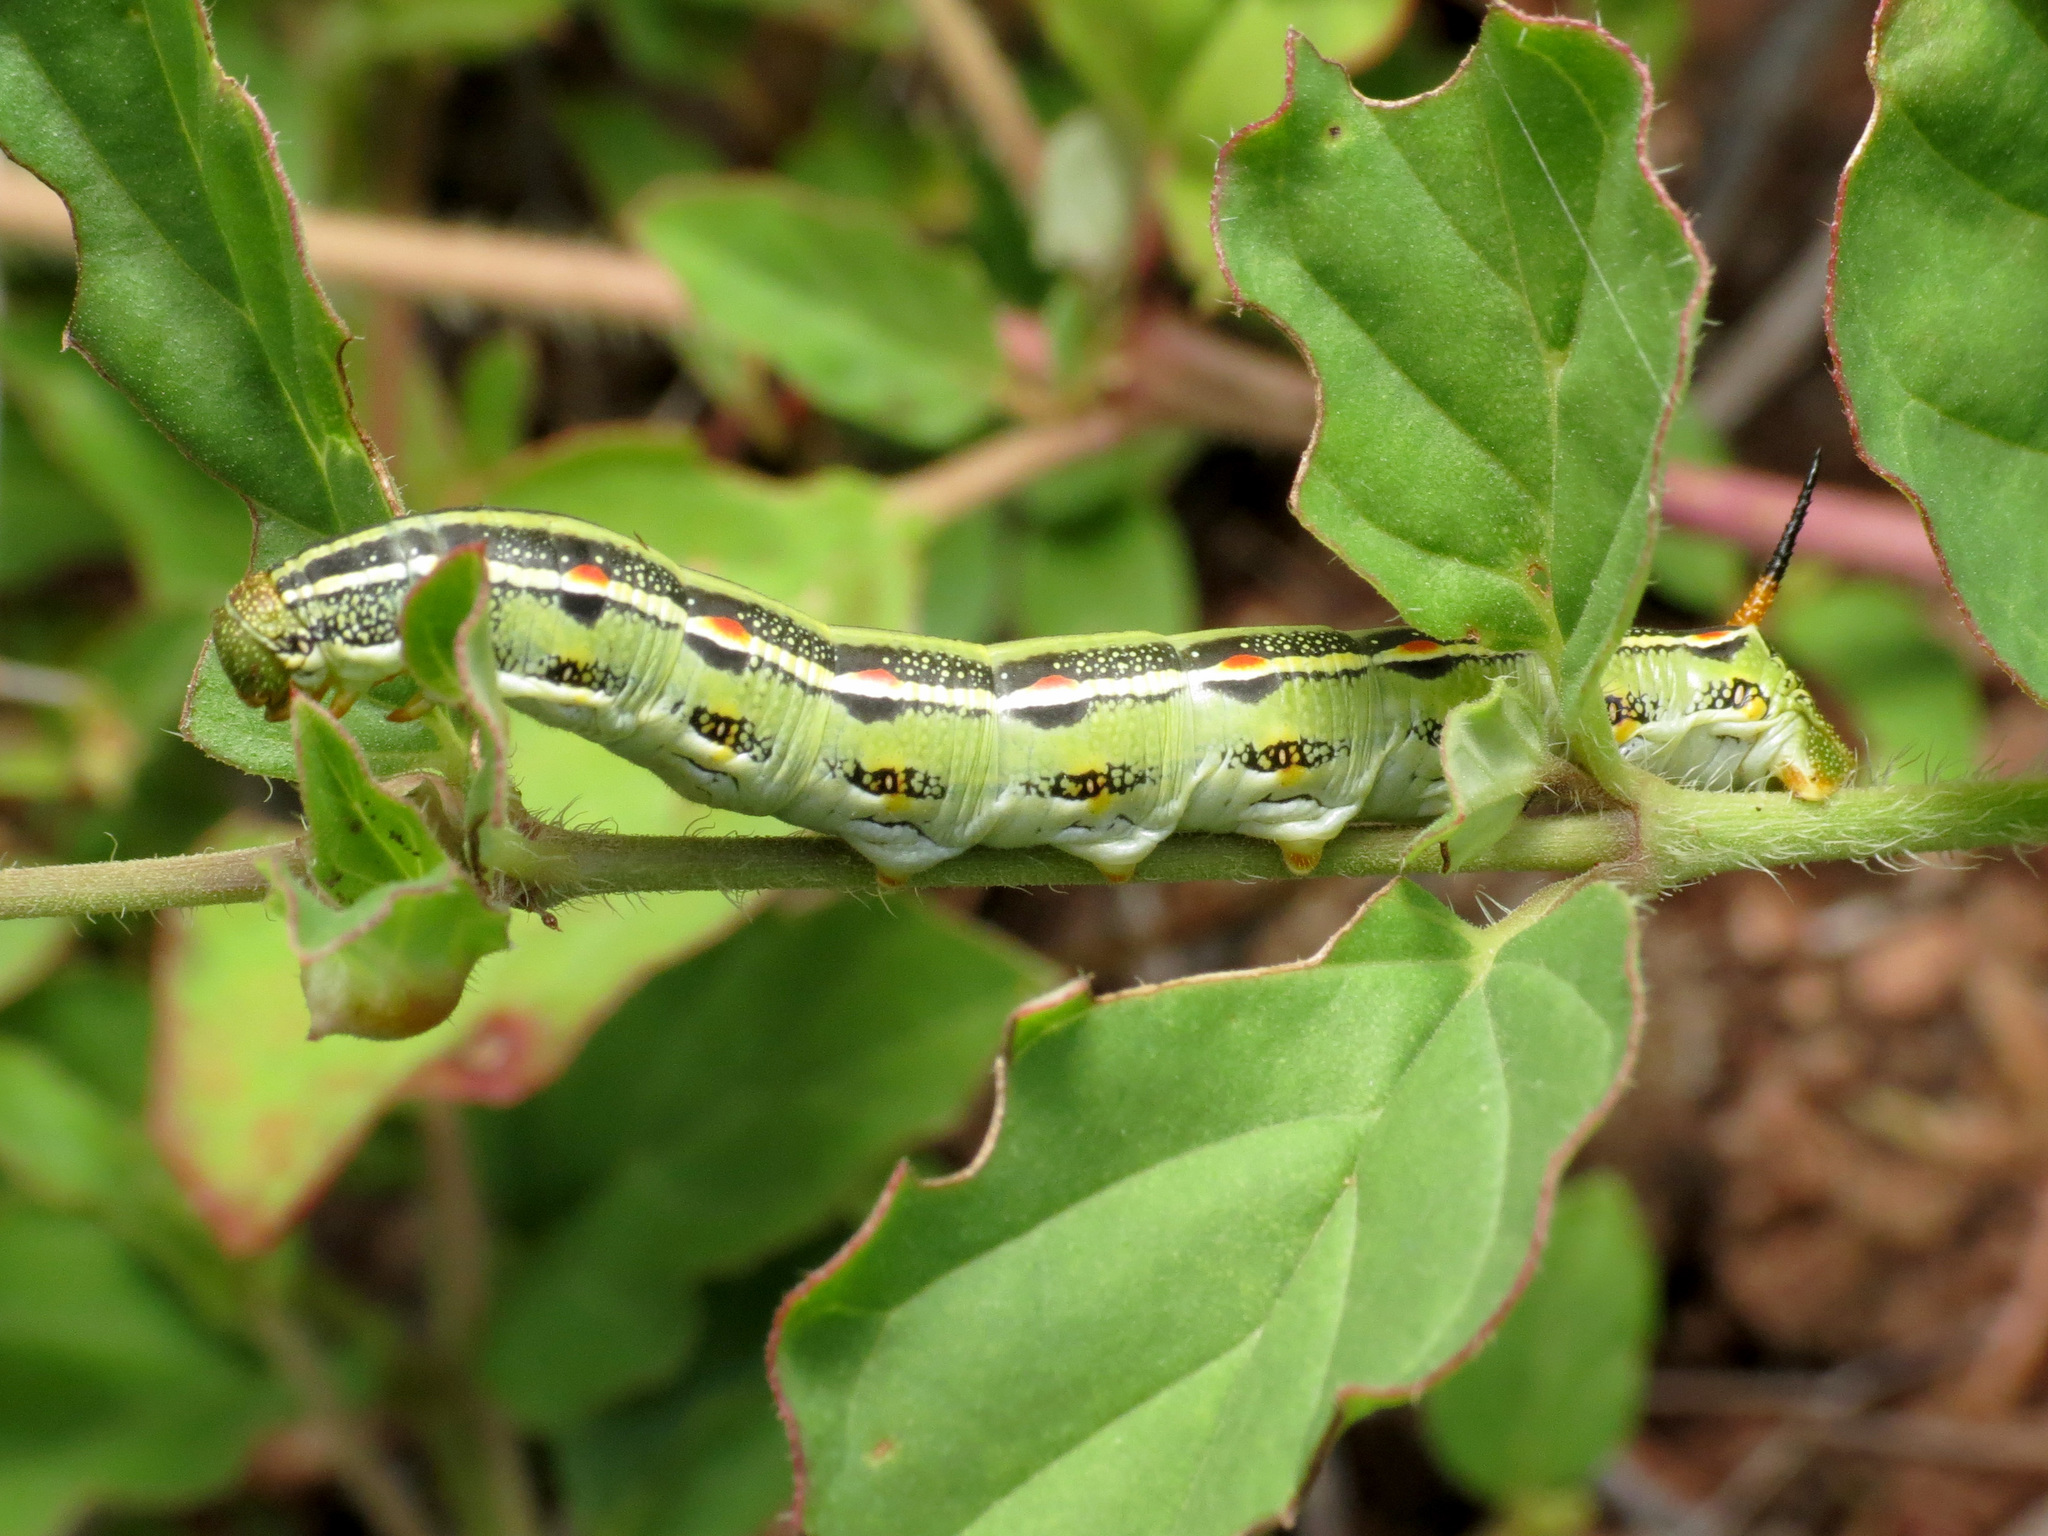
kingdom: Animalia
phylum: Arthropoda
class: Insecta
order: Lepidoptera
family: Sphingidae
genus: Hyles
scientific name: Hyles lineata
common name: White-lined sphinx
